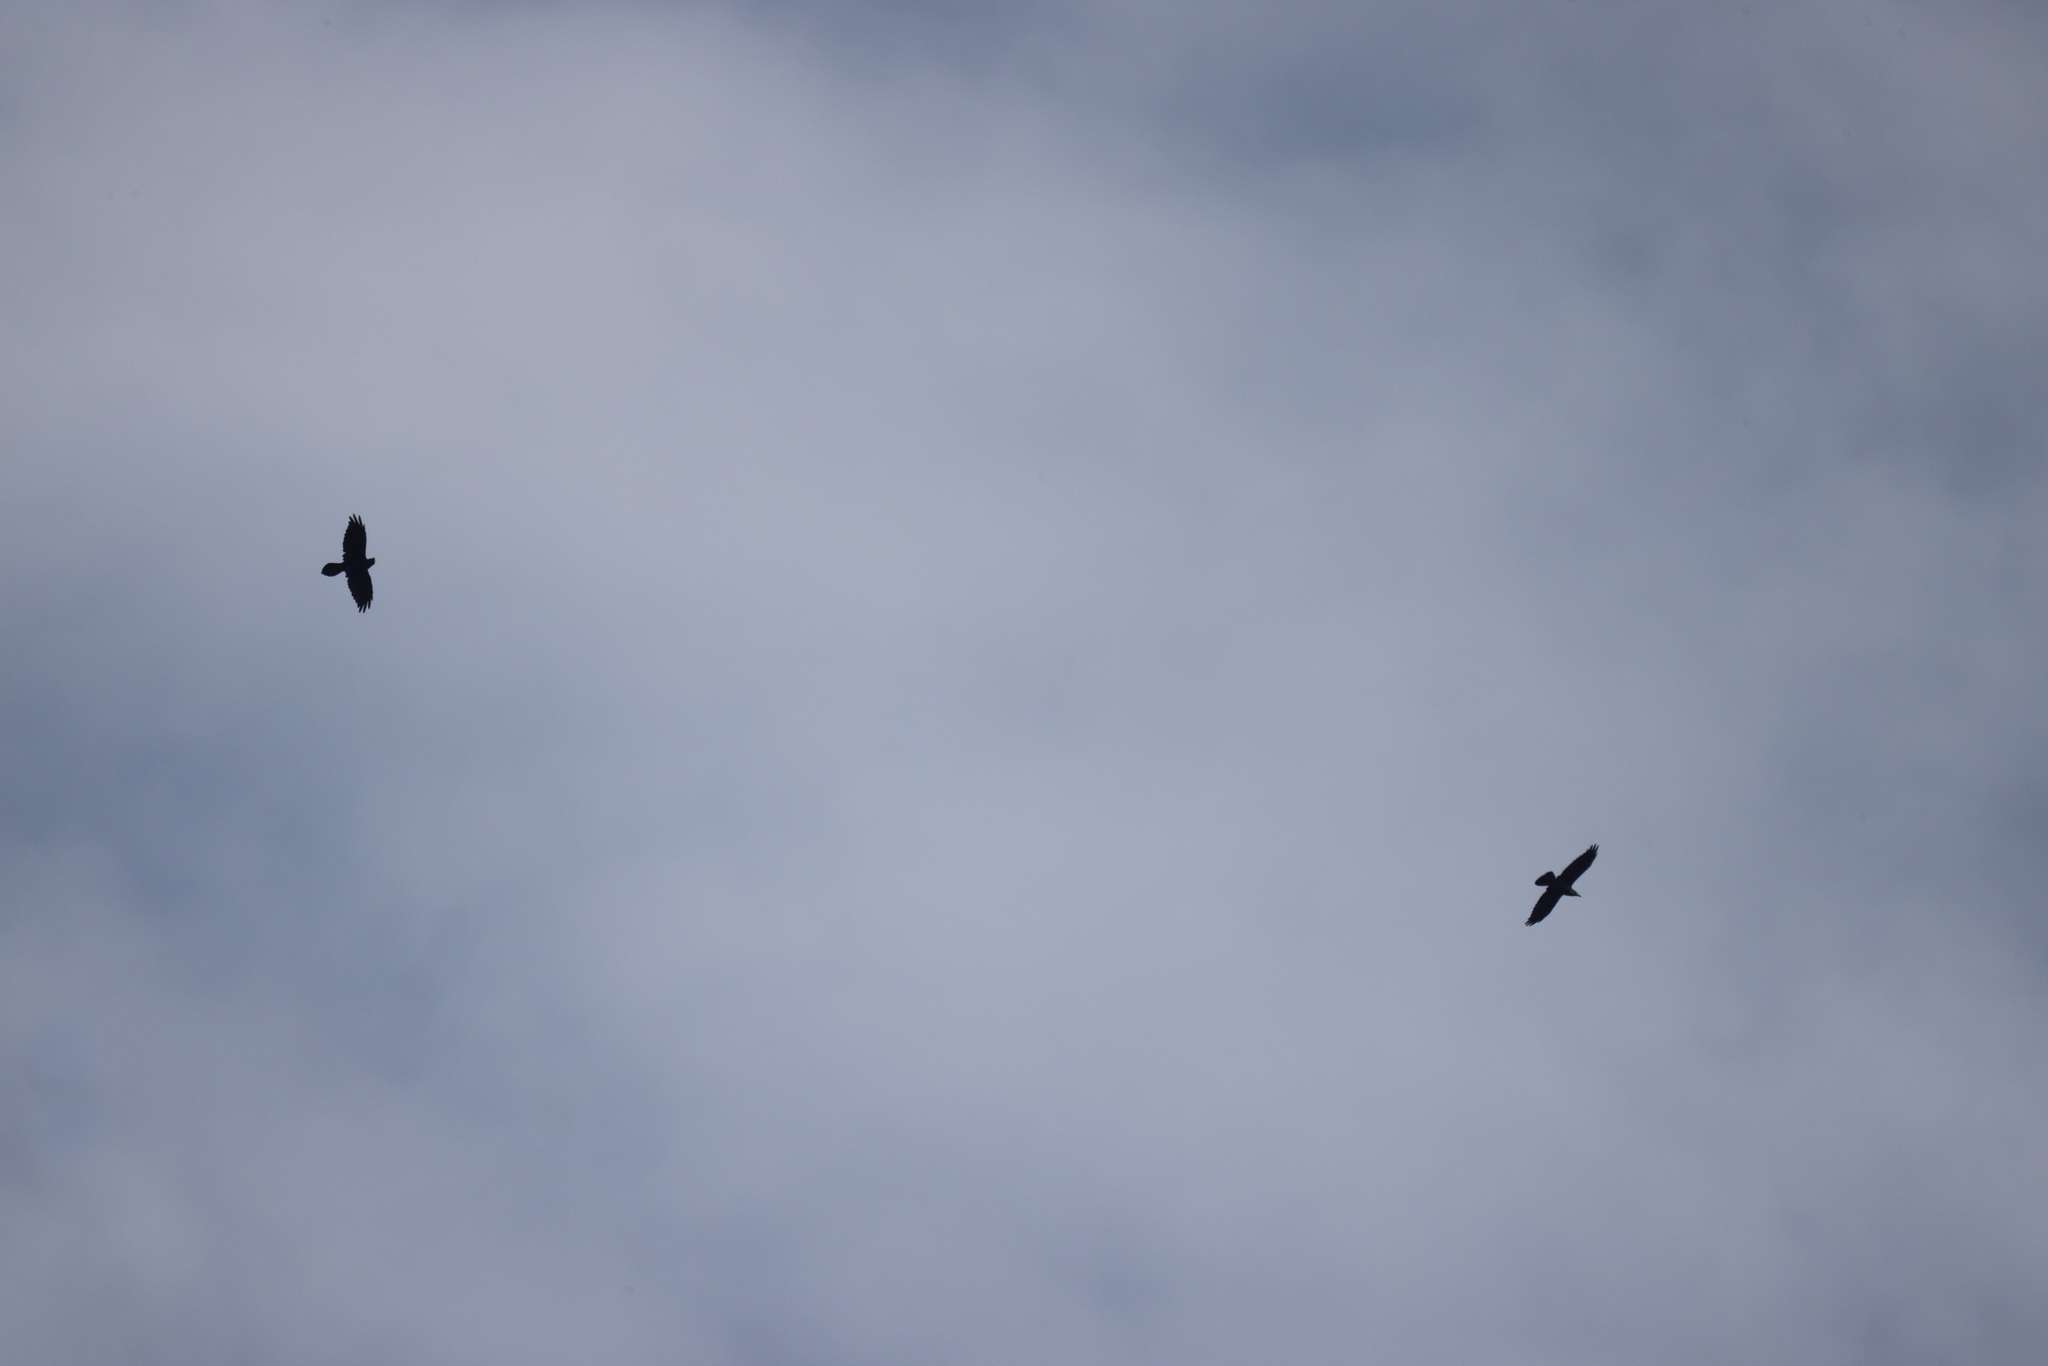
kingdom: Animalia
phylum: Chordata
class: Aves
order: Passeriformes
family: Corvidae
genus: Corvus
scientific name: Corvus corax
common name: Common raven
